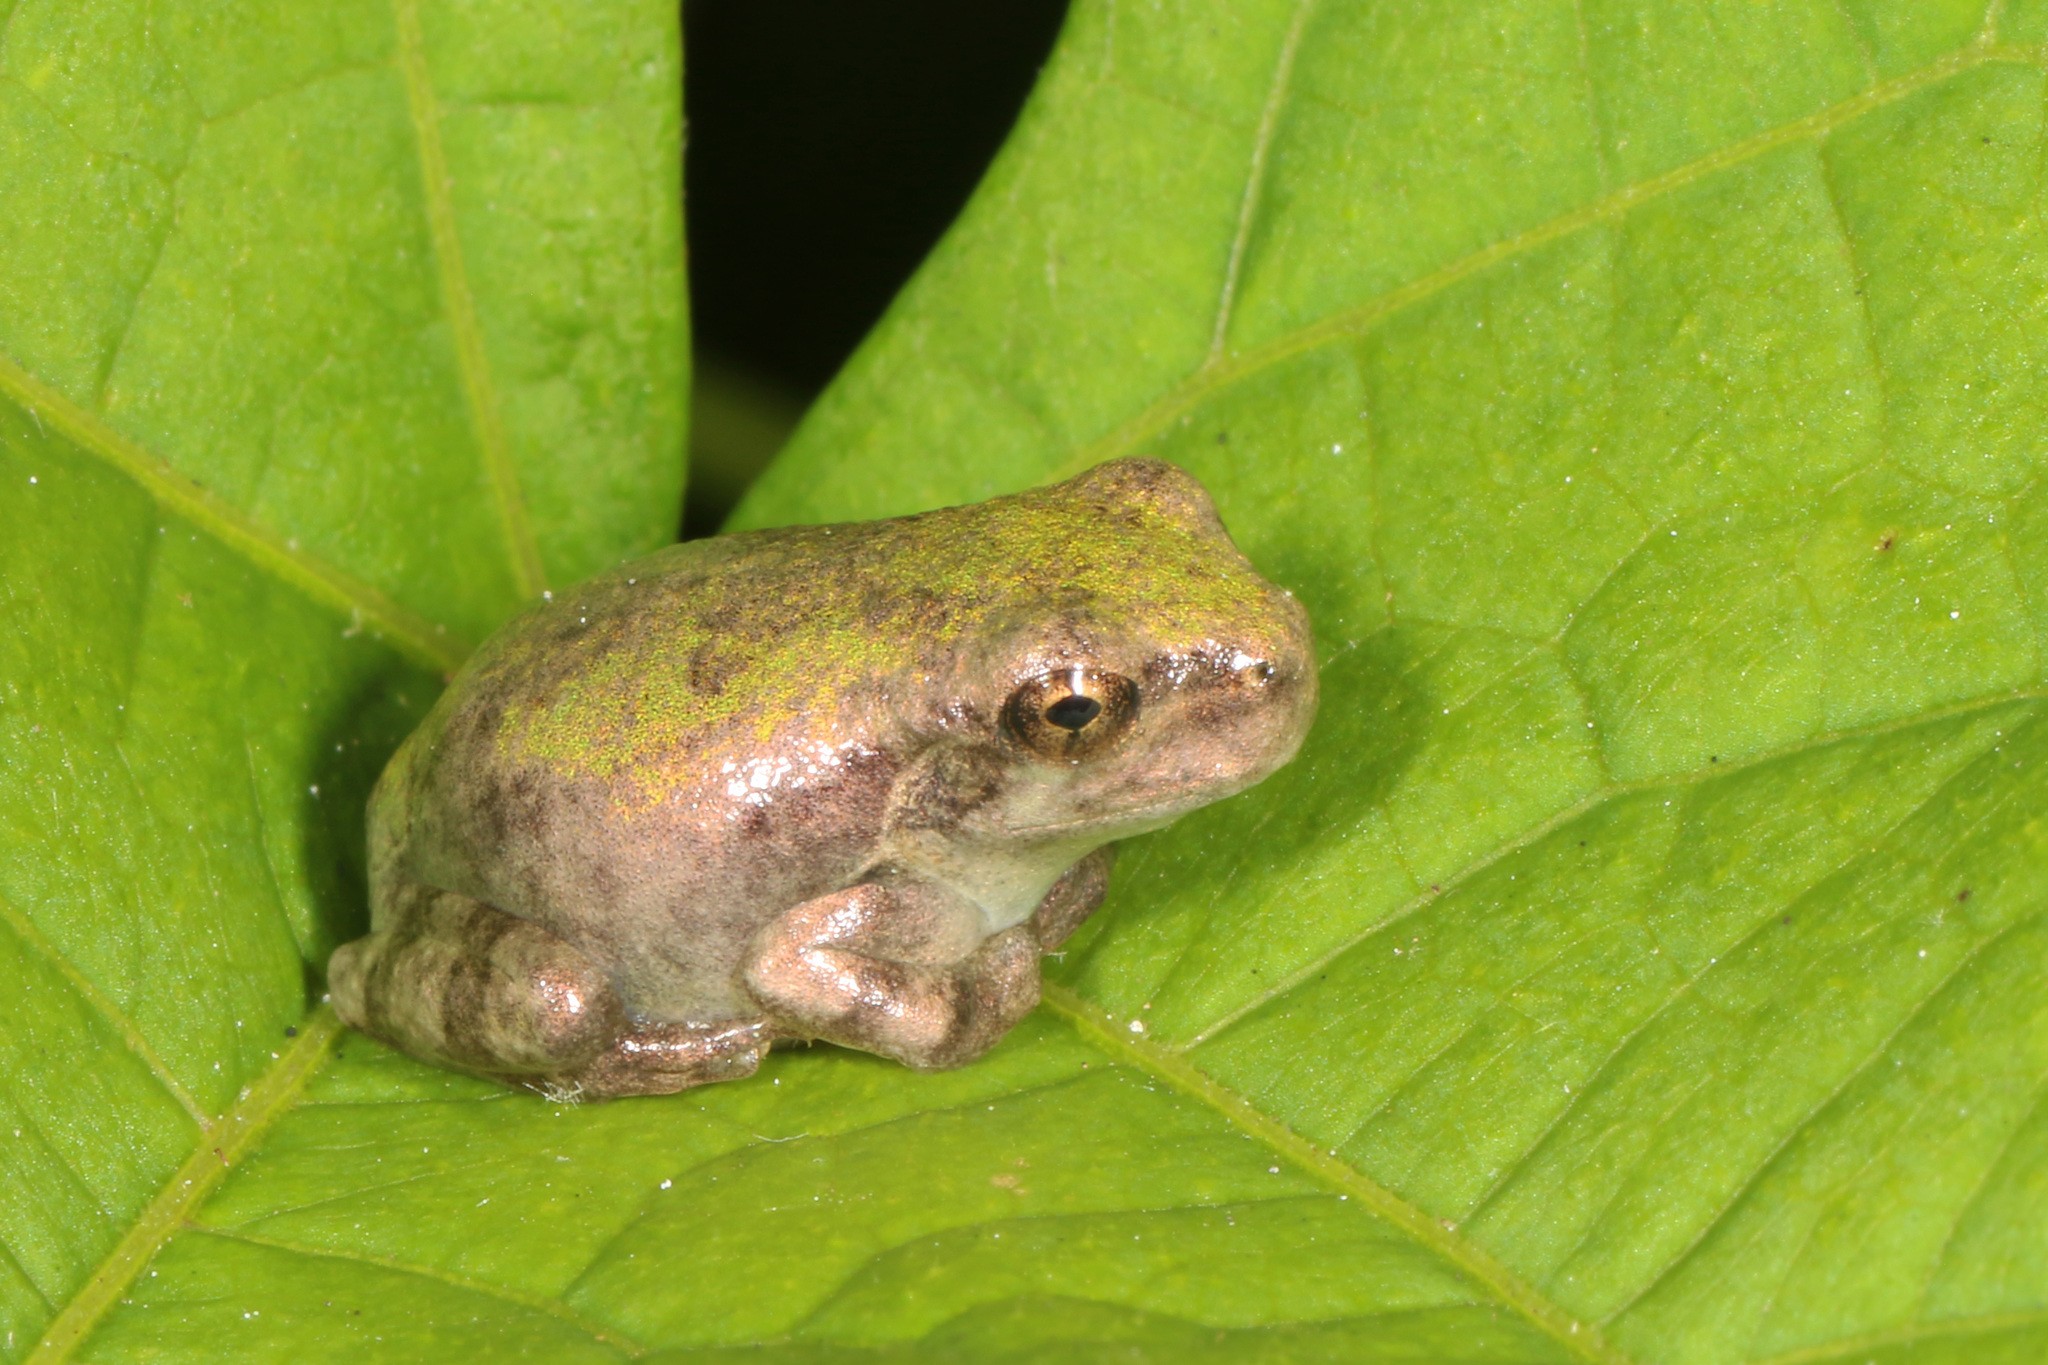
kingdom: Animalia
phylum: Chordata
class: Amphibia
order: Anura
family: Hylidae
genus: Dryophytes
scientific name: Dryophytes chrysoscelis
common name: Cope's gray treefrog
